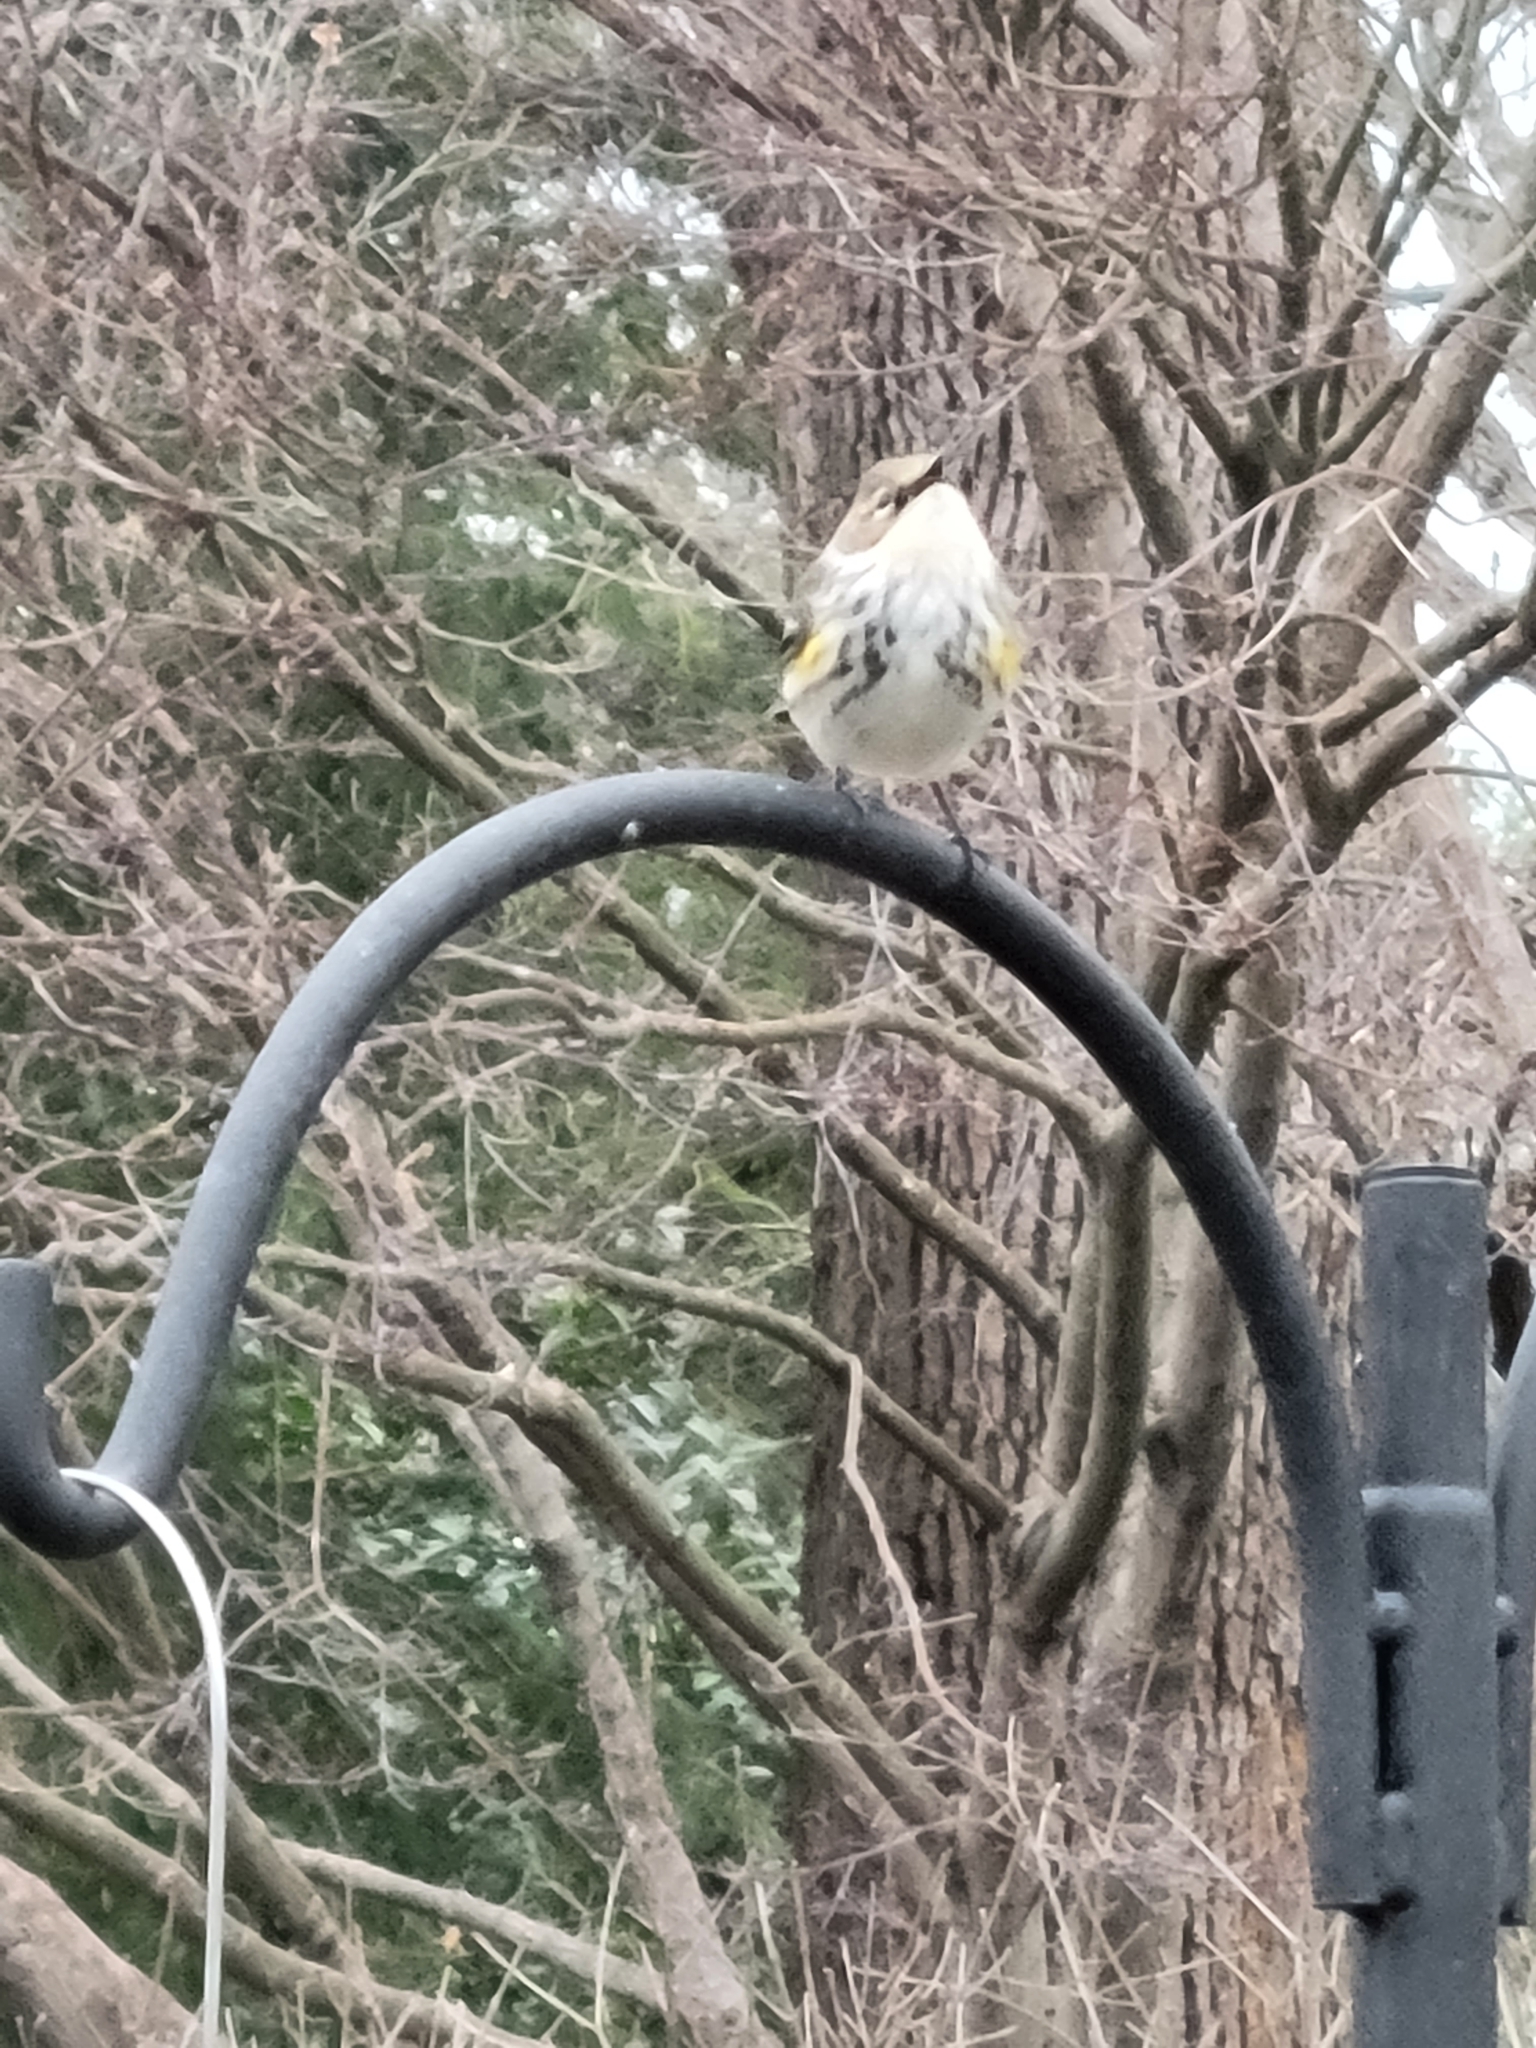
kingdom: Animalia
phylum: Chordata
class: Aves
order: Passeriformes
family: Parulidae
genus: Setophaga
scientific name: Setophaga coronata
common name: Myrtle warbler
